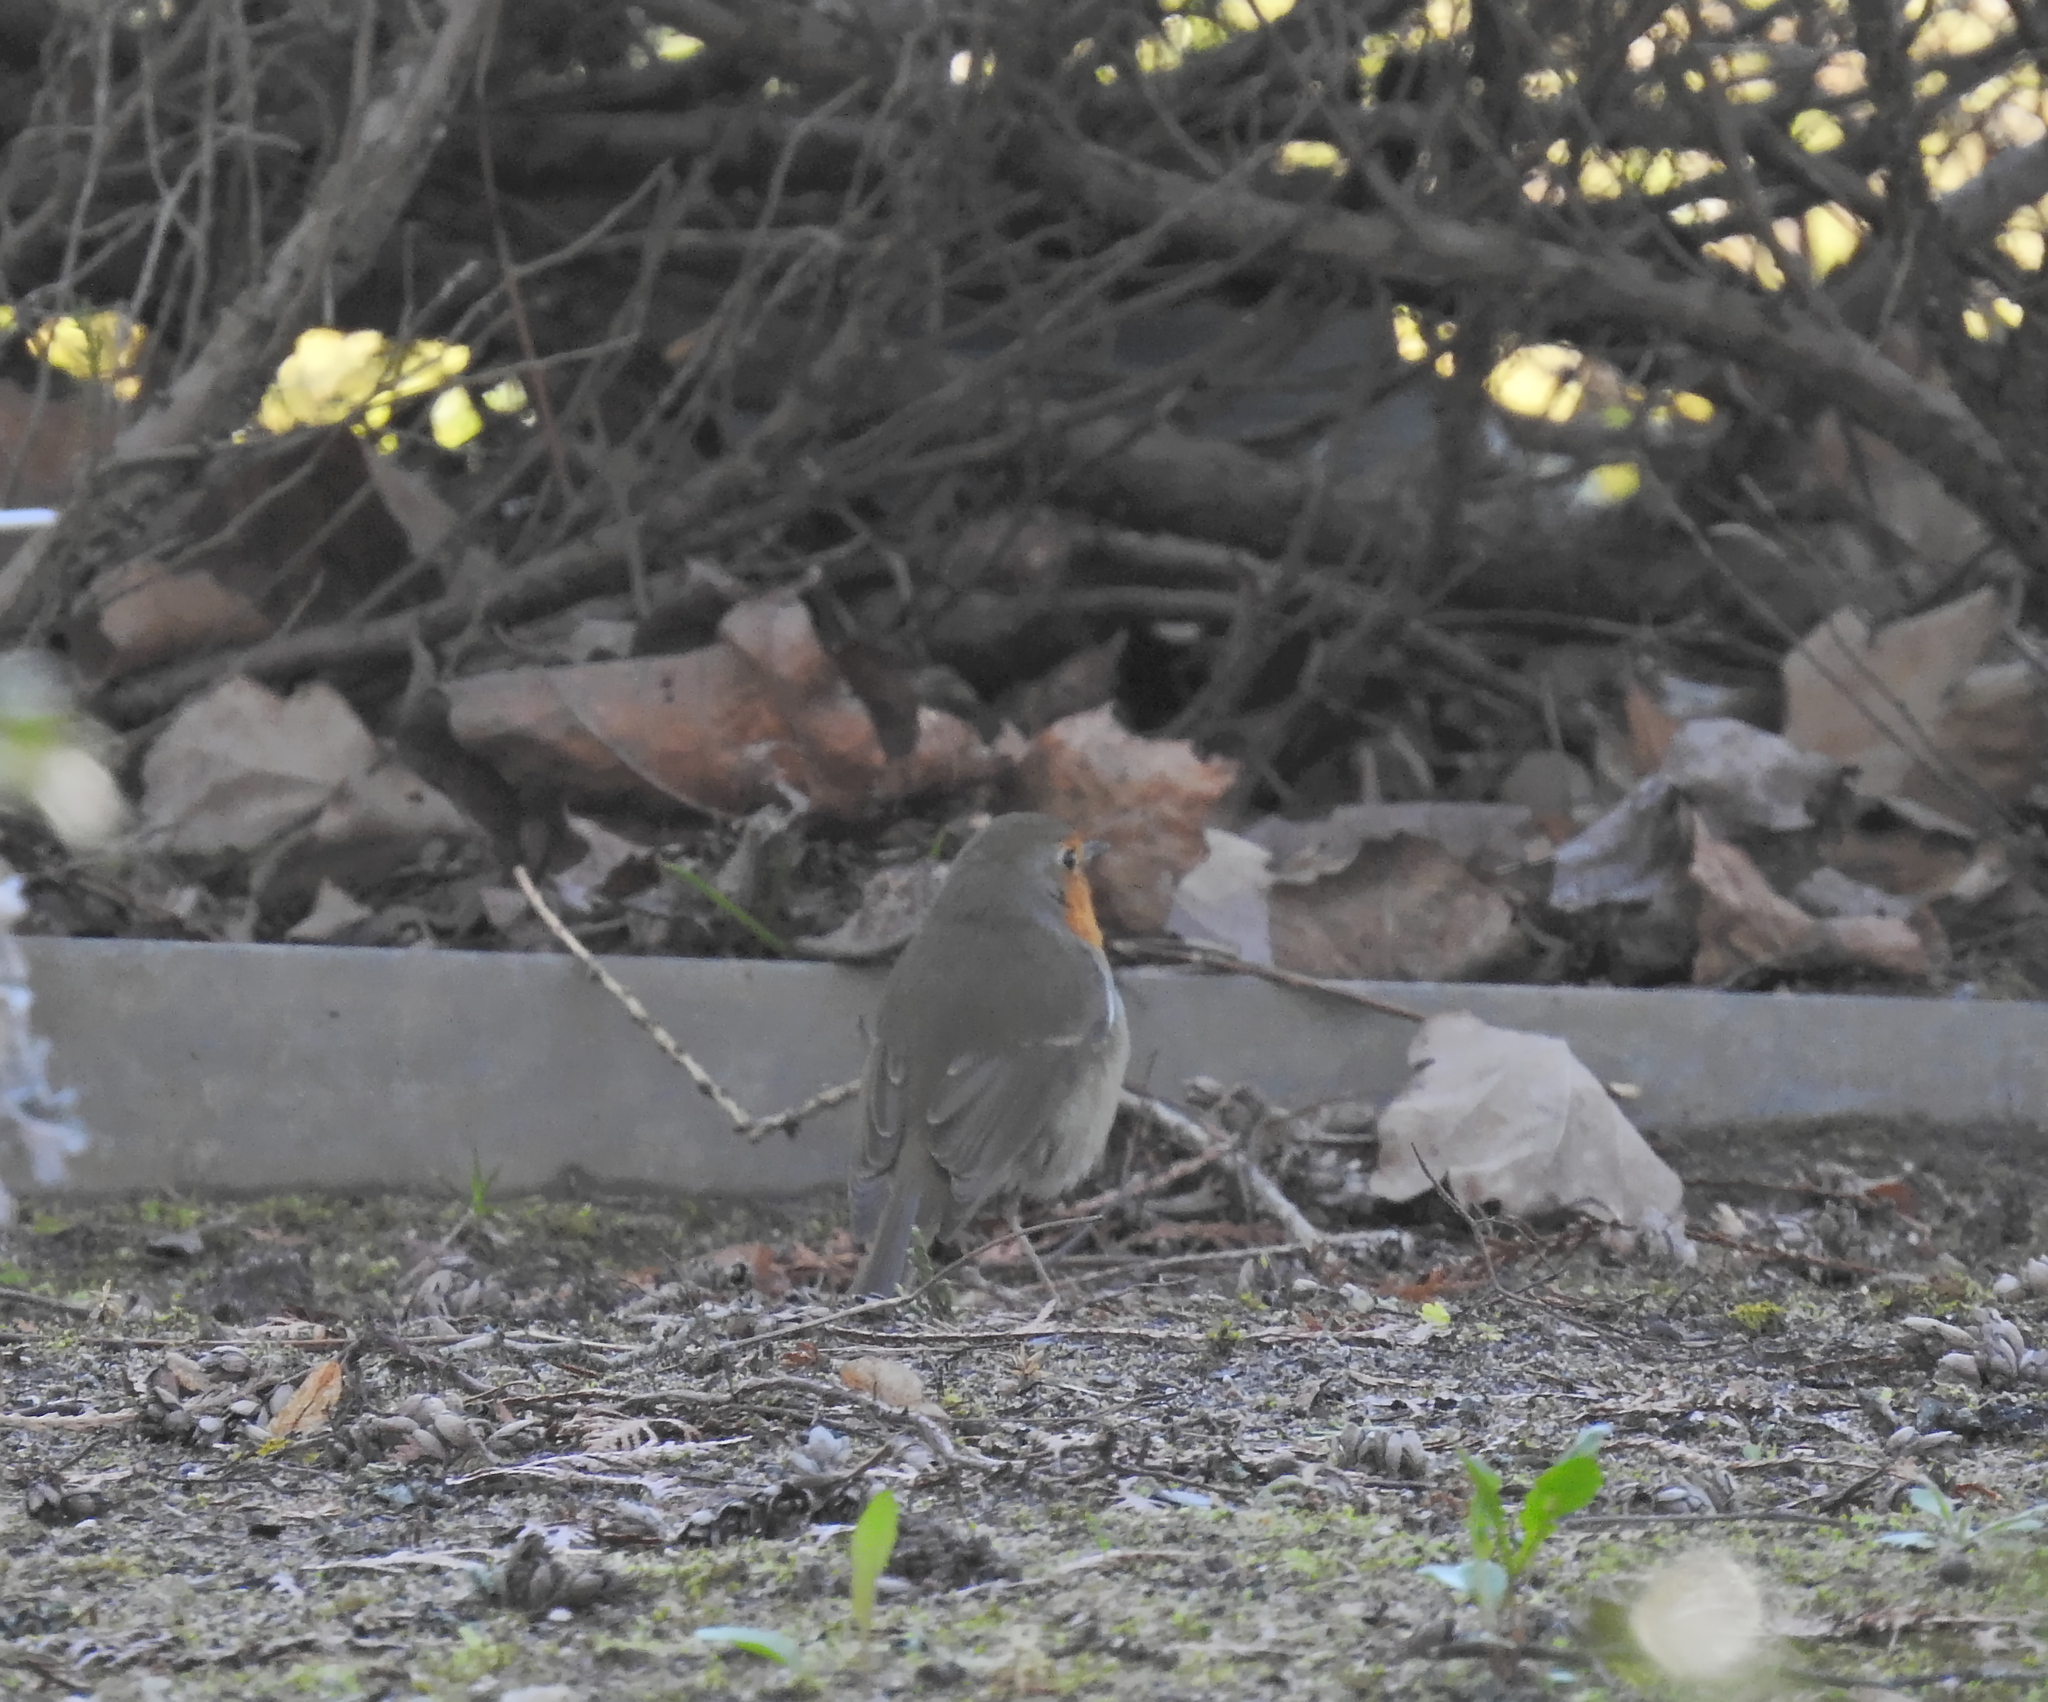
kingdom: Animalia
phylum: Chordata
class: Aves
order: Passeriformes
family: Muscicapidae
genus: Erithacus
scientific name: Erithacus rubecula
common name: European robin
